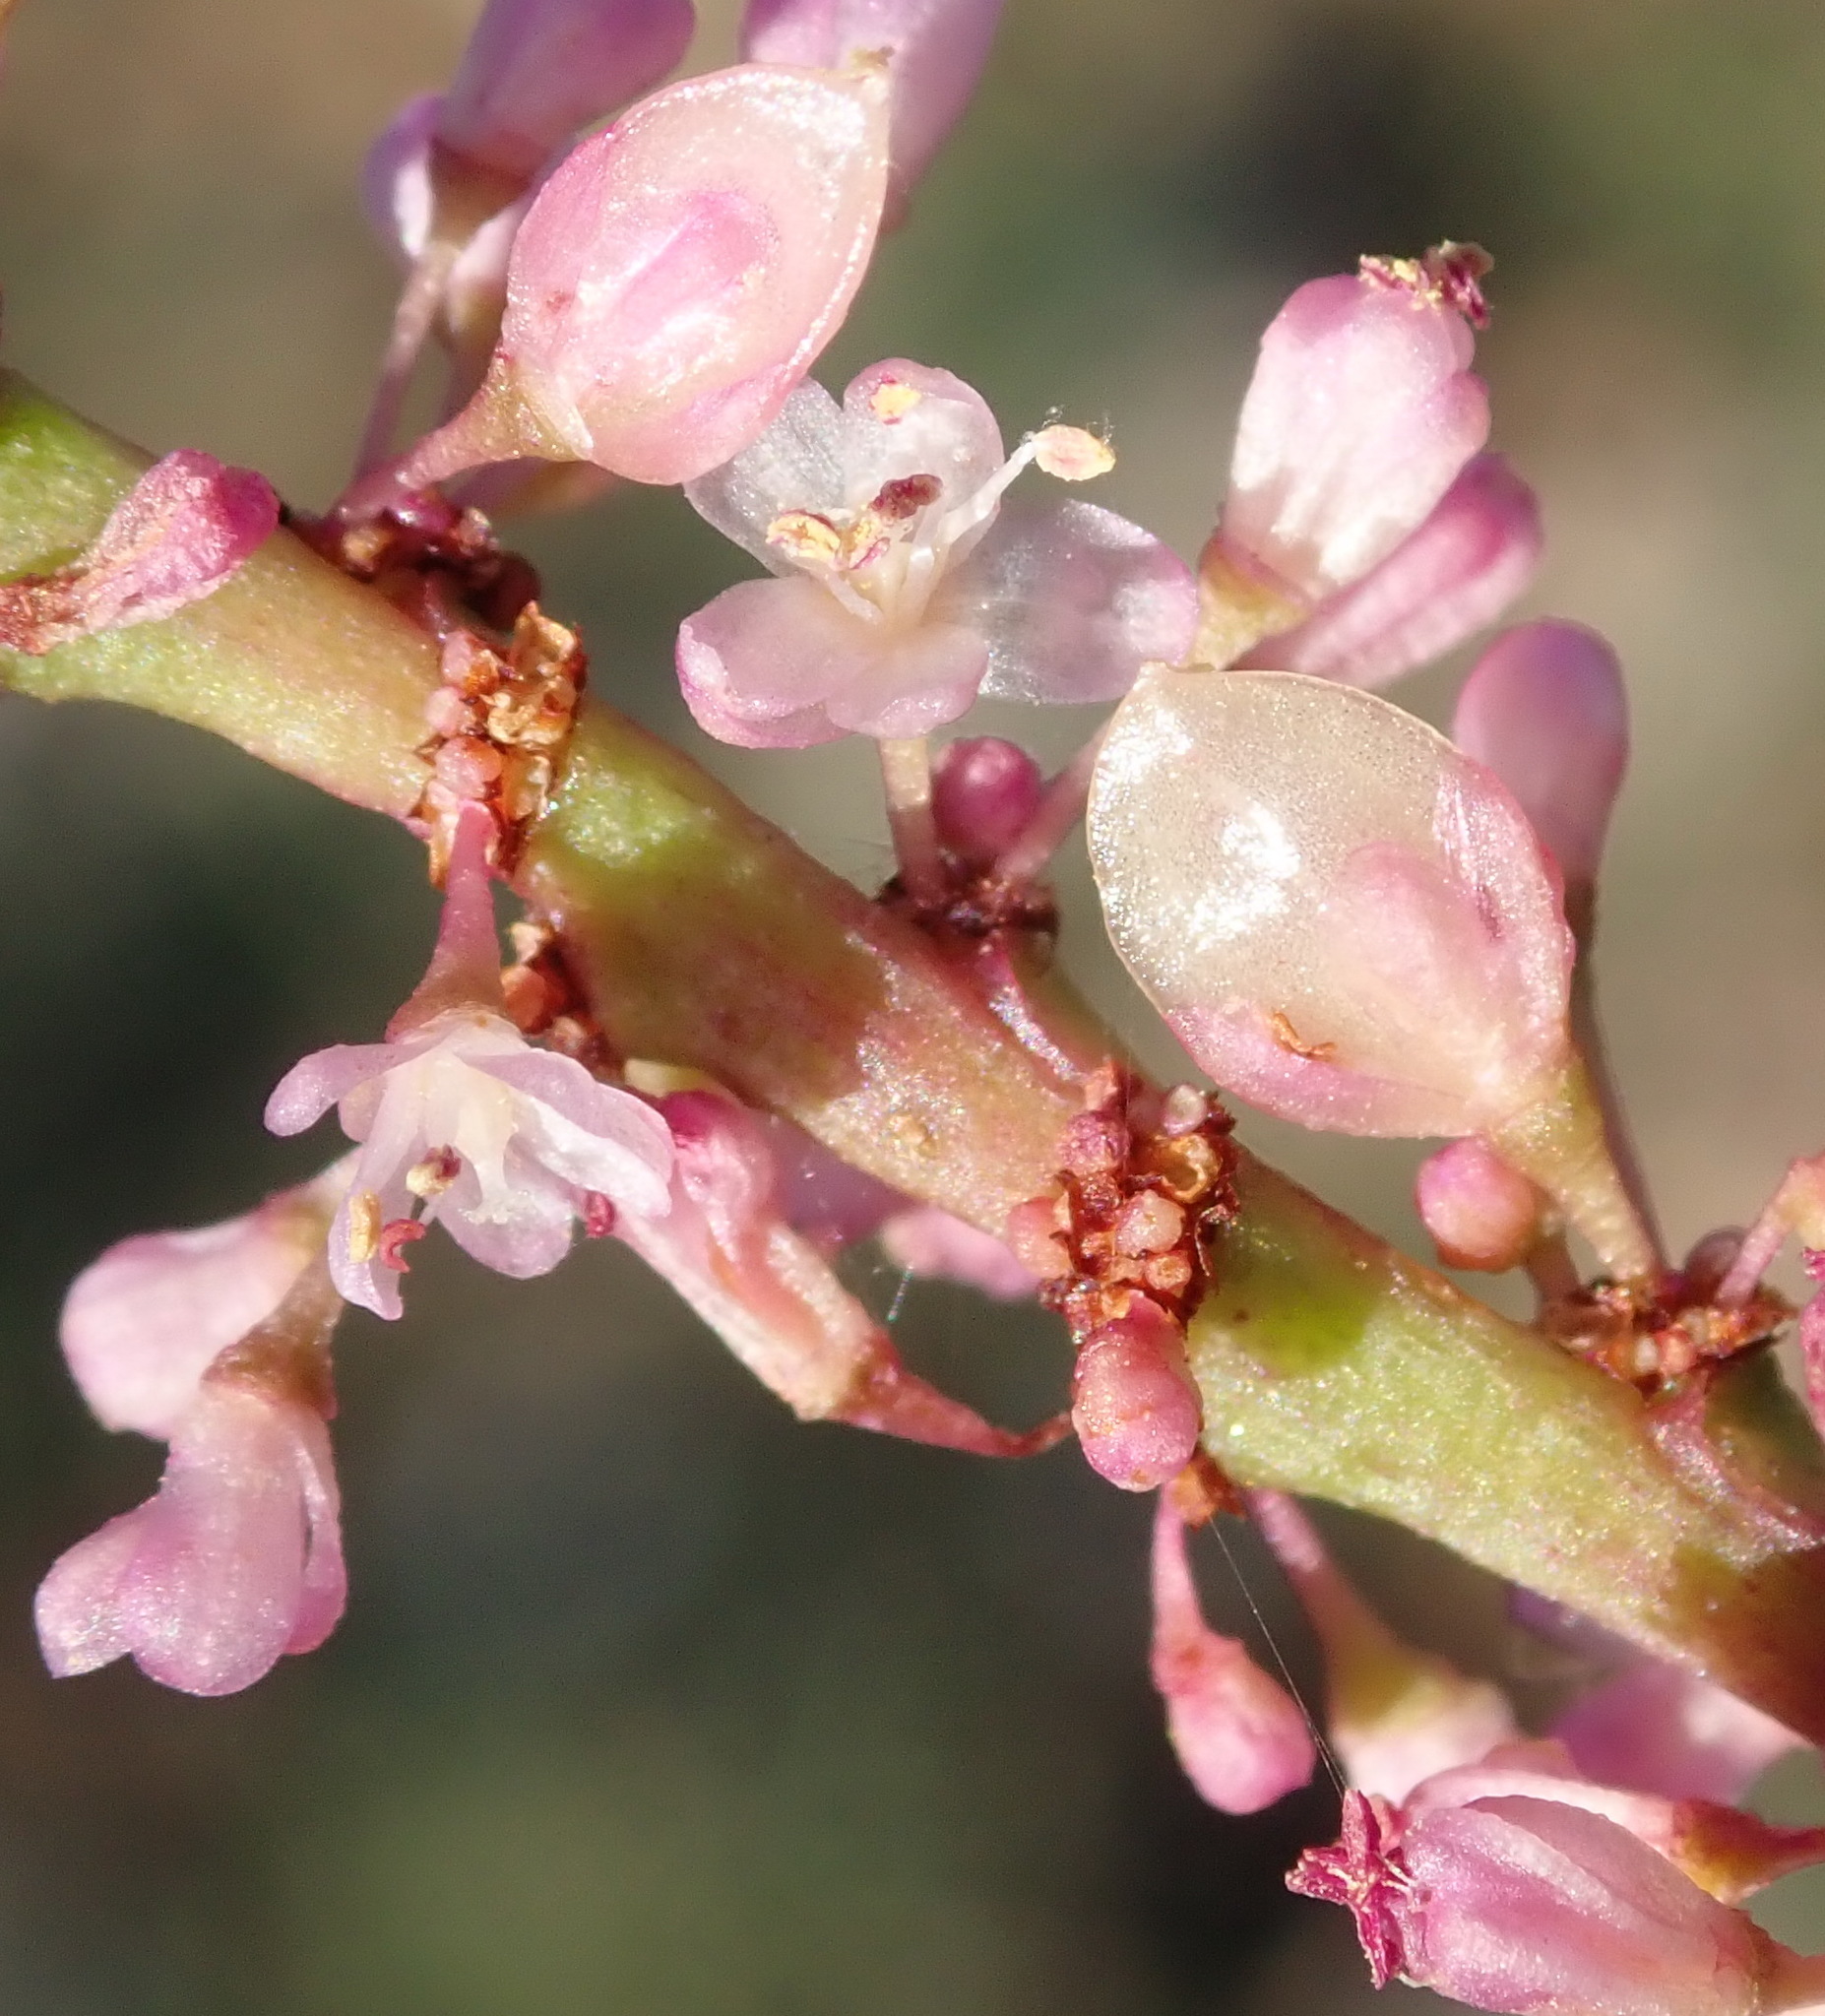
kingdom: Plantae
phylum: Tracheophyta
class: Magnoliopsida
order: Caryophyllales
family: Didiereaceae
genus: Portulacaria
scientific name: Portulacaria afra
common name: Elephant-bush
